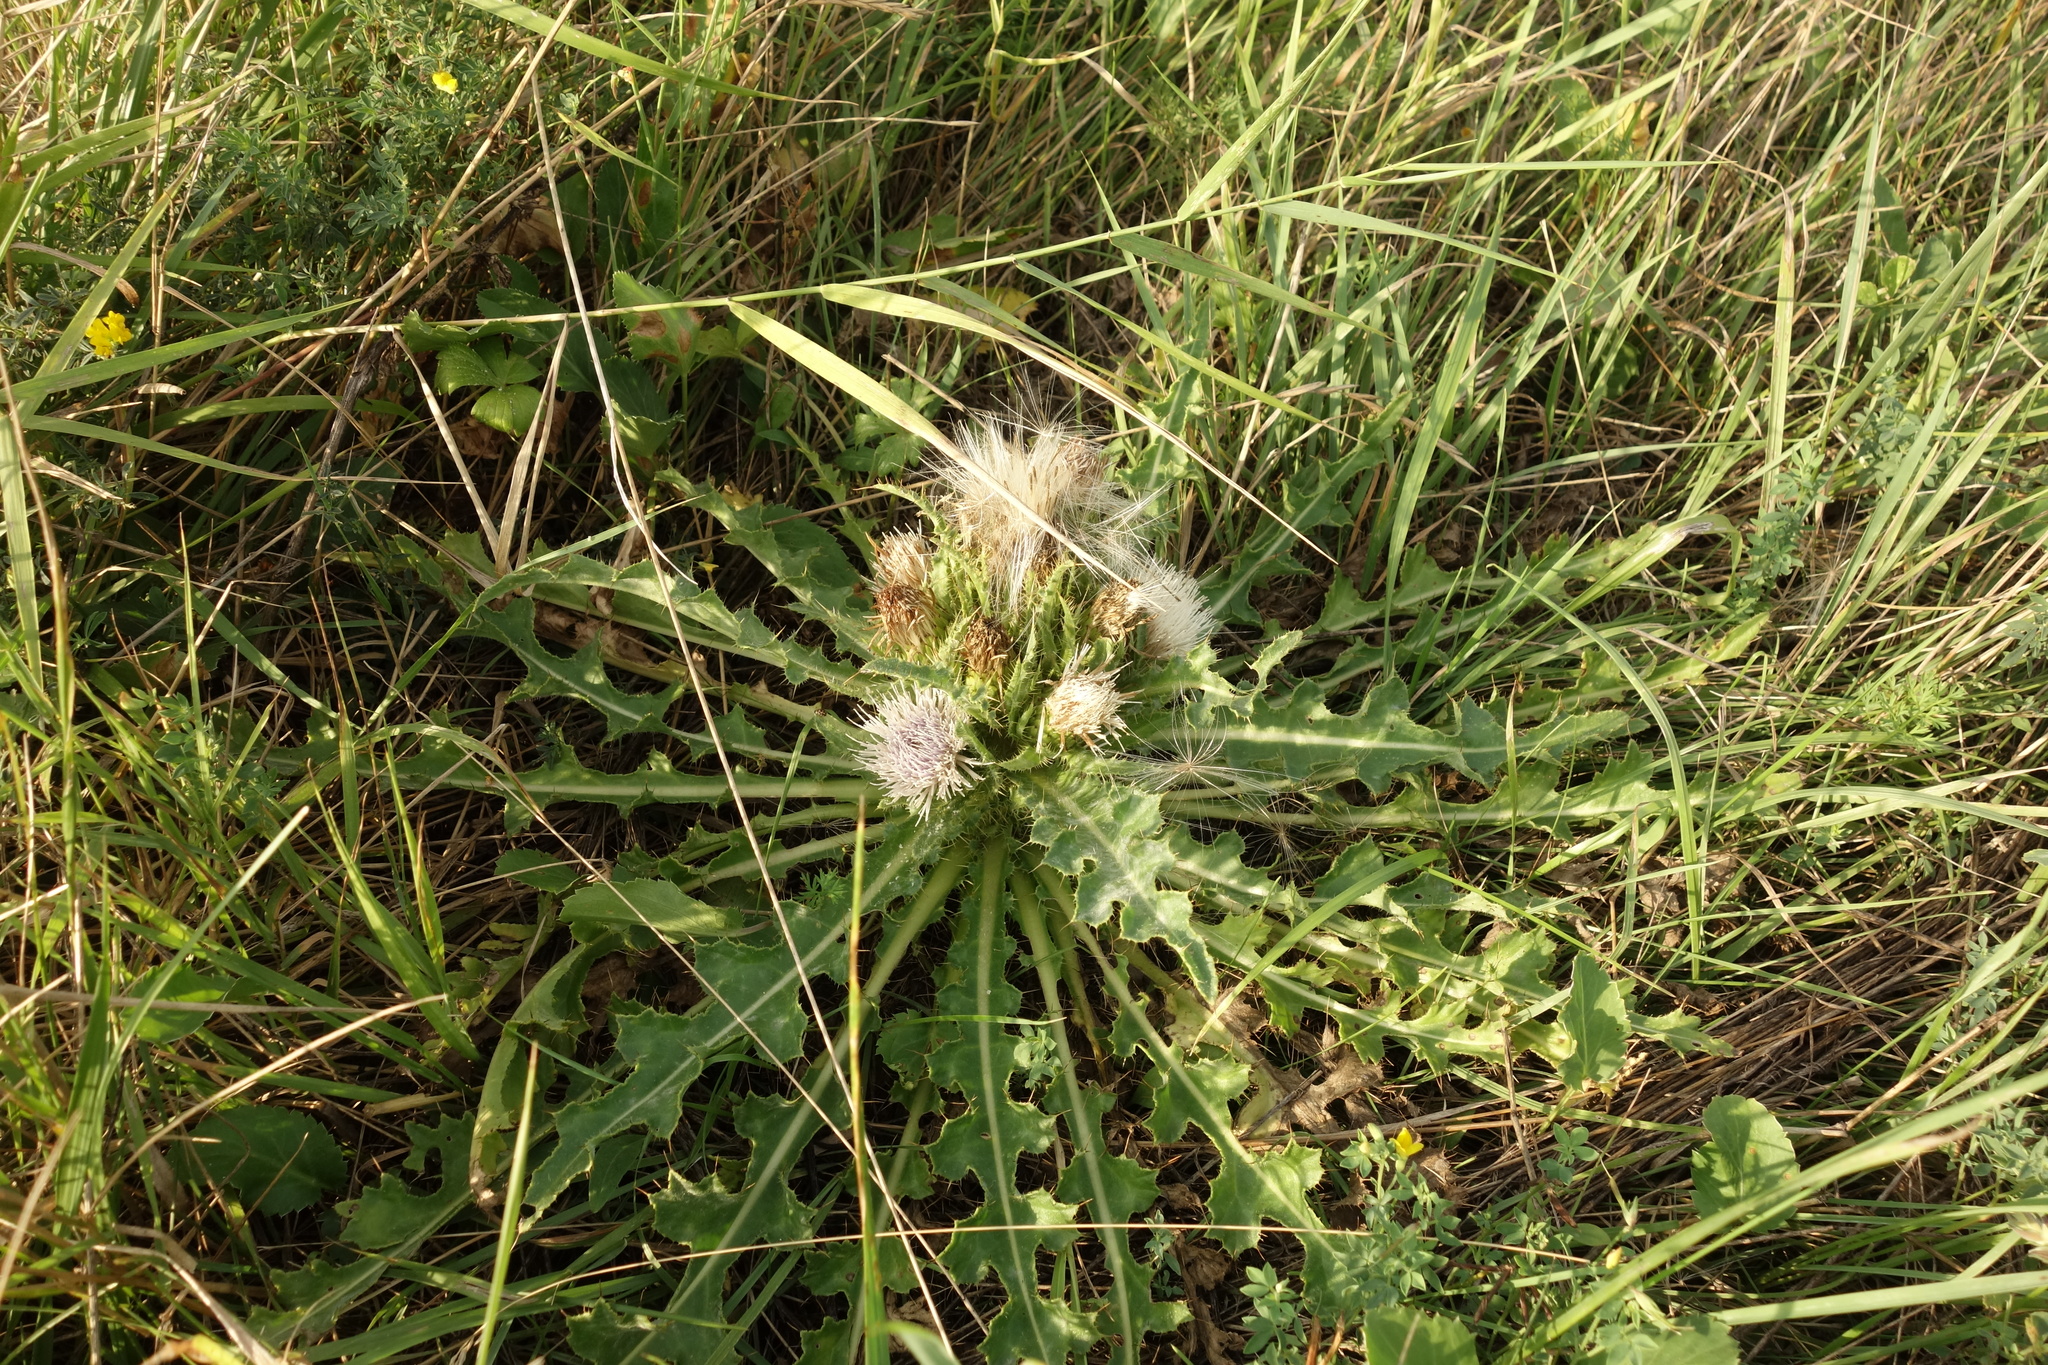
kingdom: Plantae
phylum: Tracheophyta
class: Magnoliopsida
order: Asterales
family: Asteraceae
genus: Cirsium
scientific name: Cirsium esculentum
